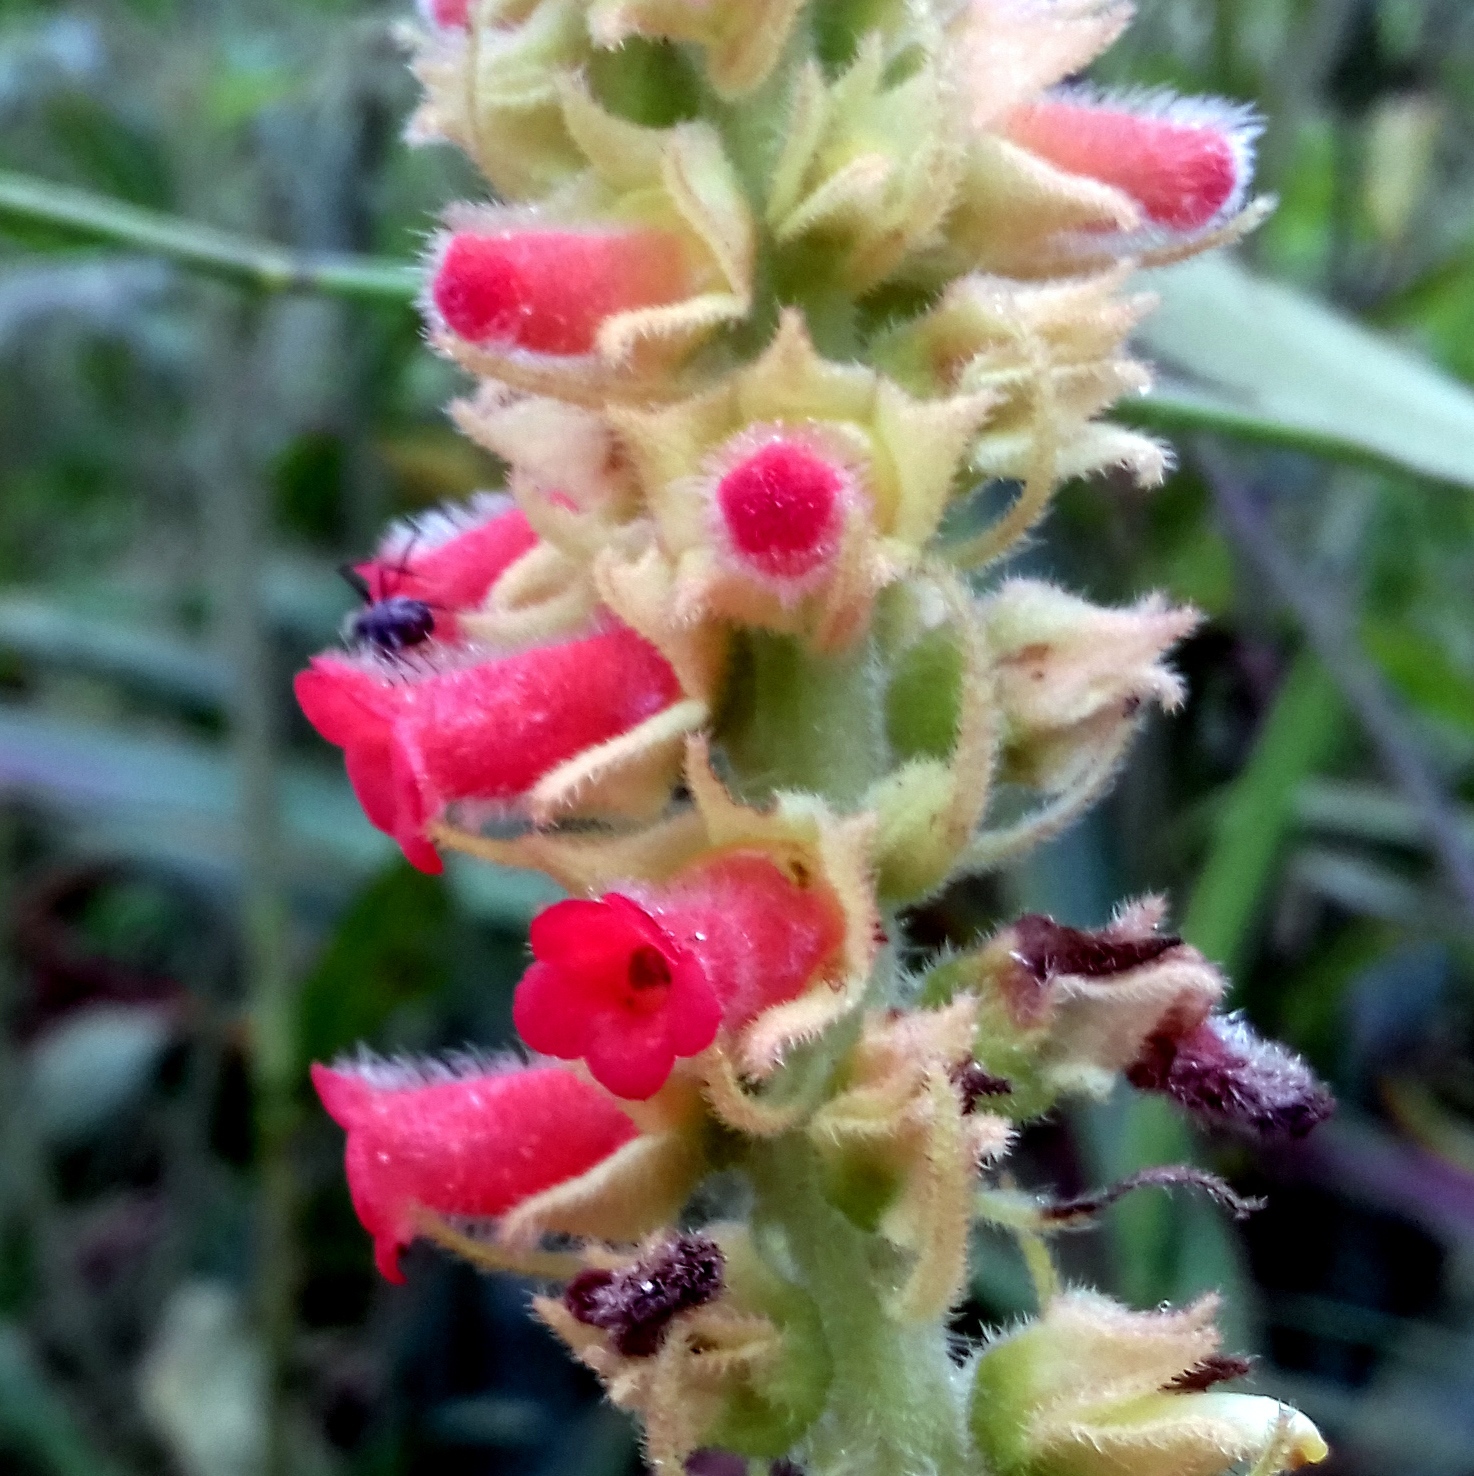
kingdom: Plantae
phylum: Tracheophyta
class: Magnoliopsida
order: Lamiales
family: Gesneriaceae
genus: Sinningia
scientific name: Sinningia curtiflora
